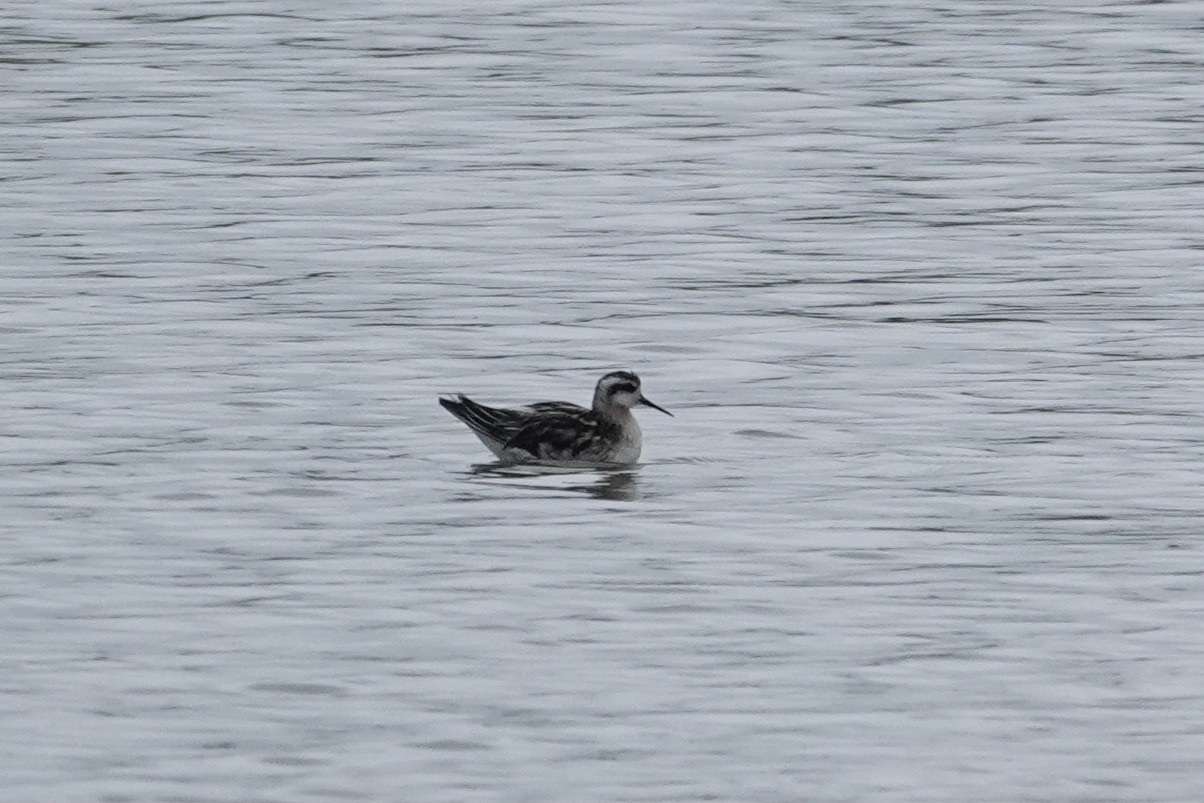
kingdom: Animalia
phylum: Chordata
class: Aves
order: Charadriiformes
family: Scolopacidae
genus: Phalaropus
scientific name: Phalaropus lobatus
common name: Red-necked phalarope
